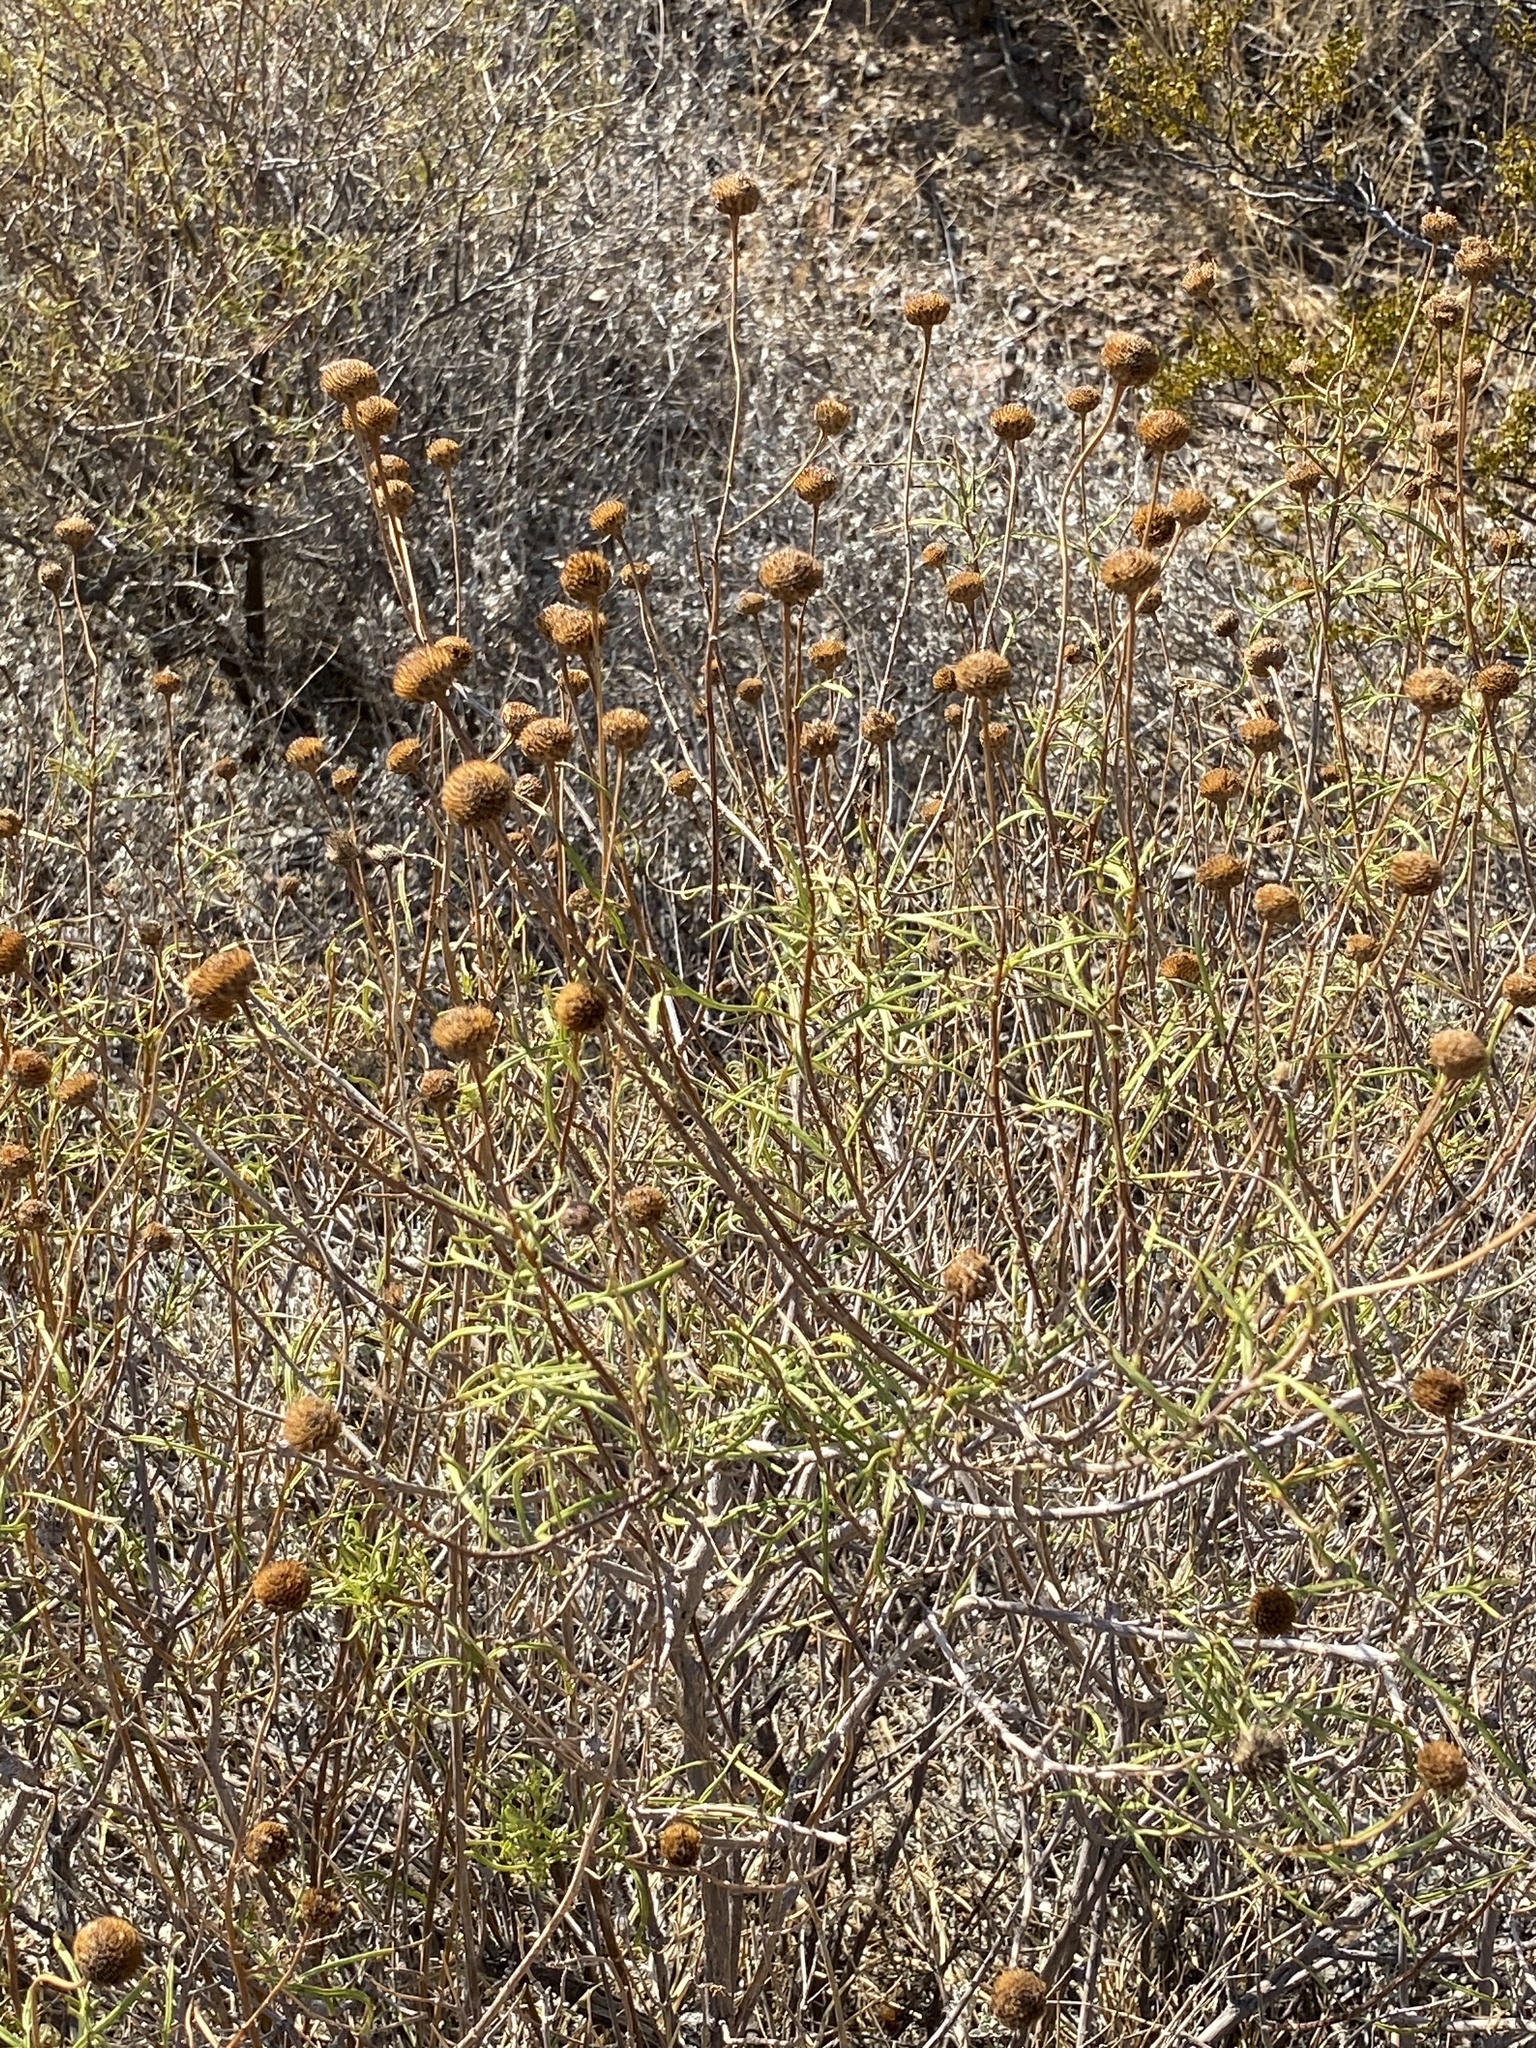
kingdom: Plantae
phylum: Tracheophyta
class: Magnoliopsida
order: Asterales
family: Asteraceae
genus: Sidneya
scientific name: Sidneya tenuifolia
